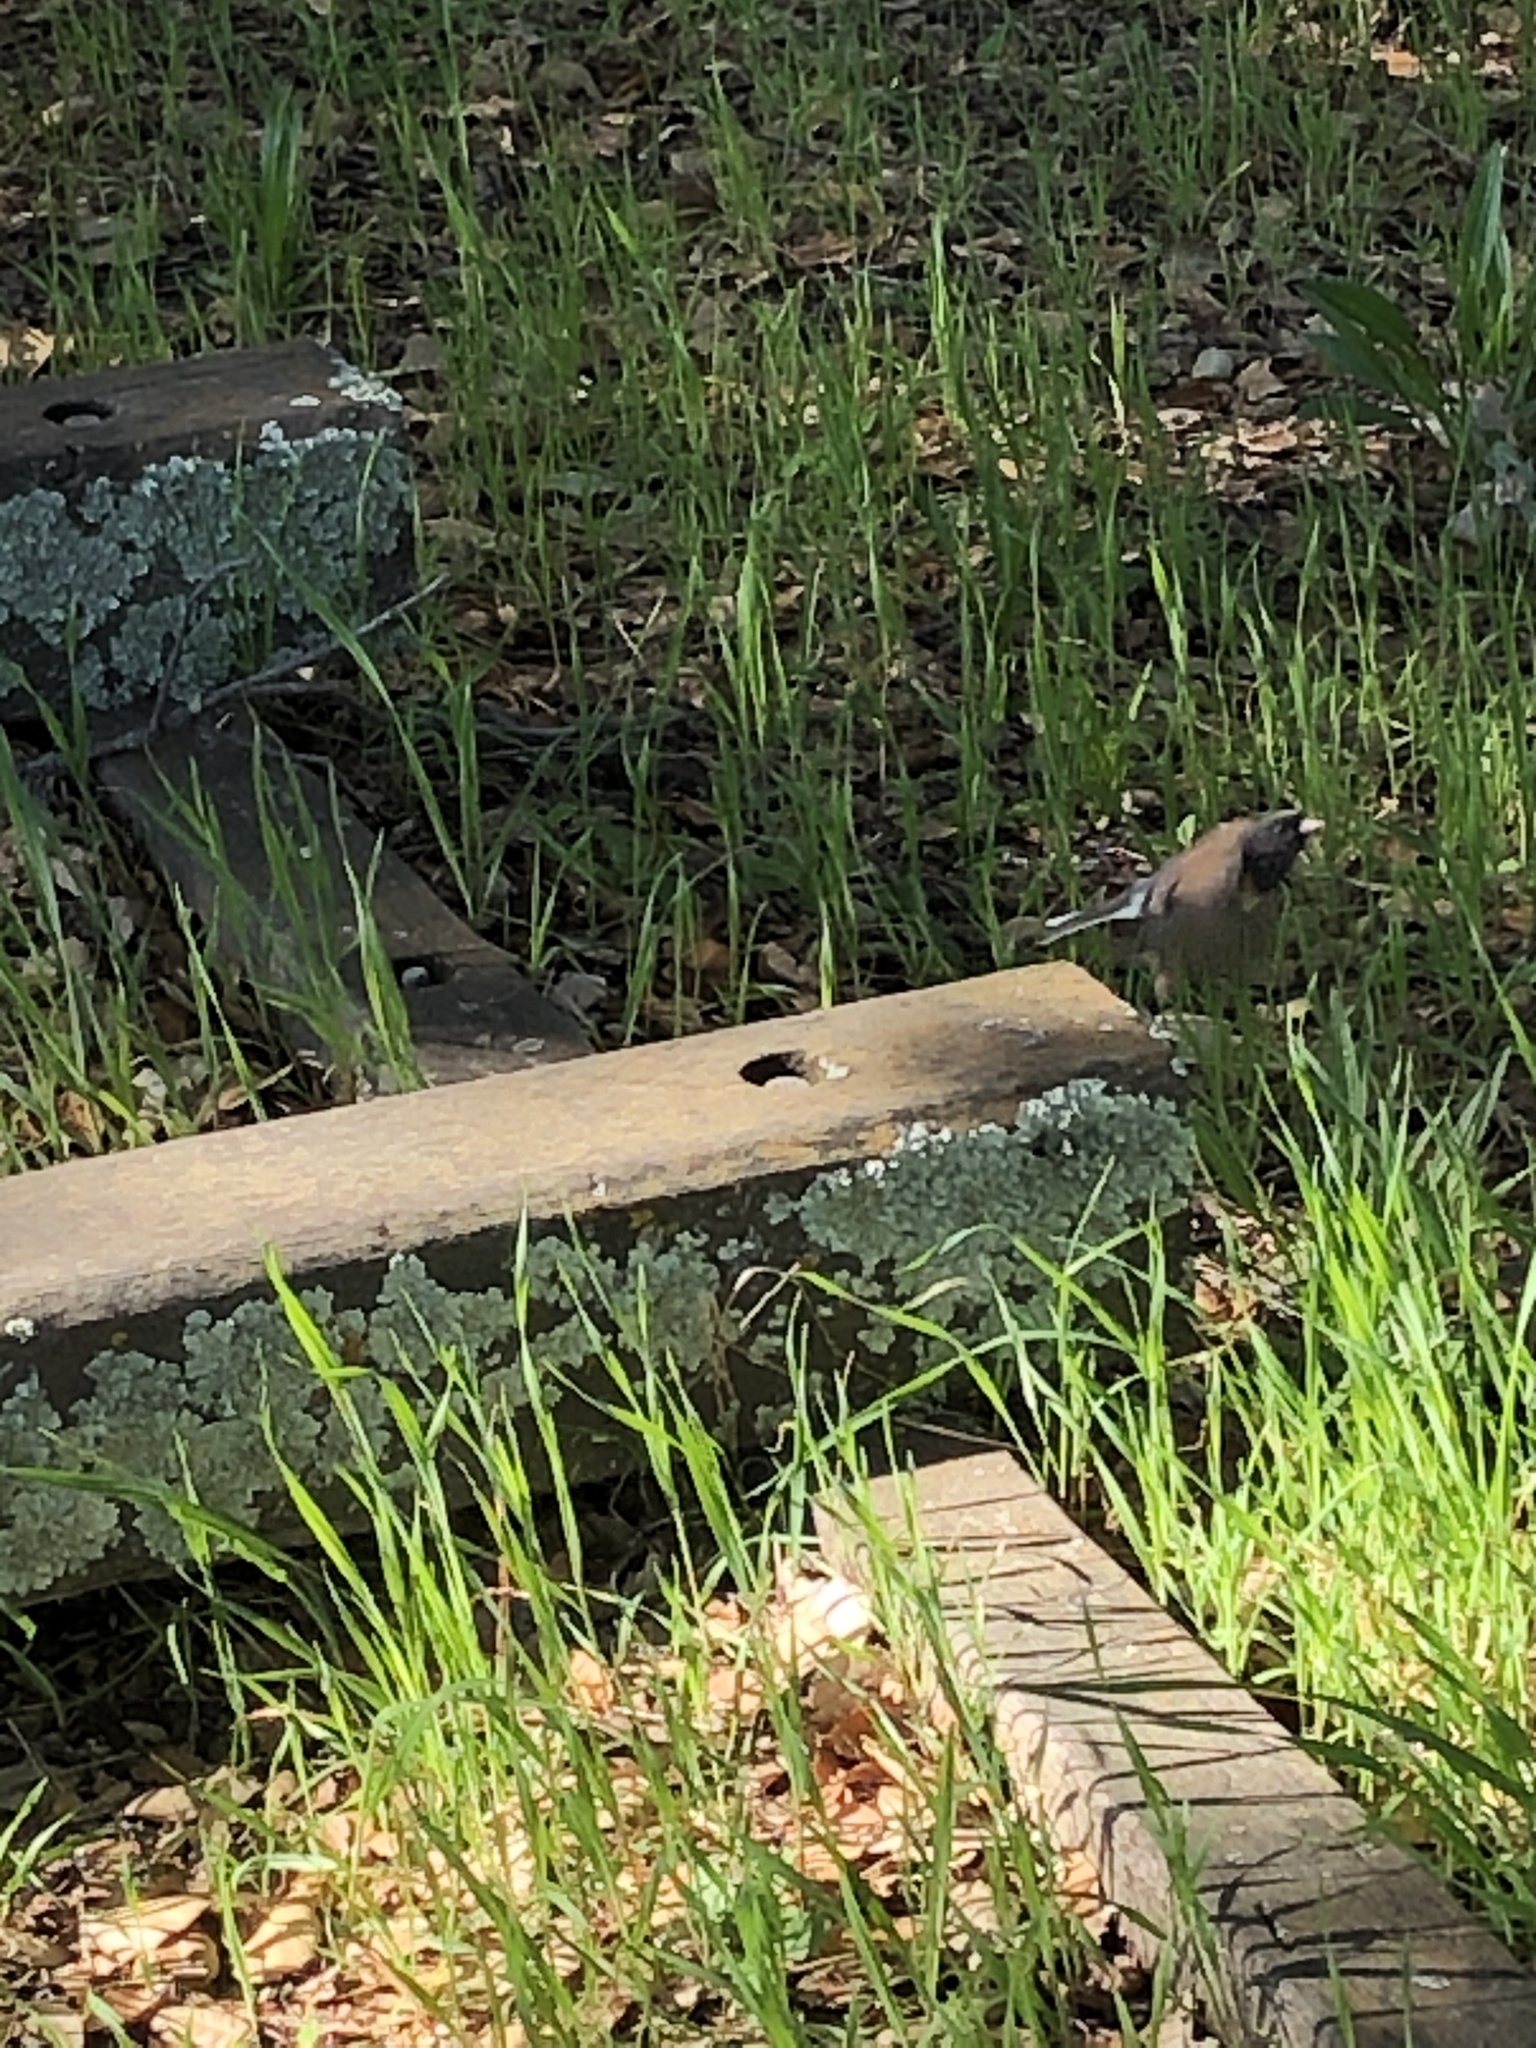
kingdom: Animalia
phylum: Chordata
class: Aves
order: Passeriformes
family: Passerellidae
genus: Junco
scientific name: Junco hyemalis
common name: Dark-eyed junco
